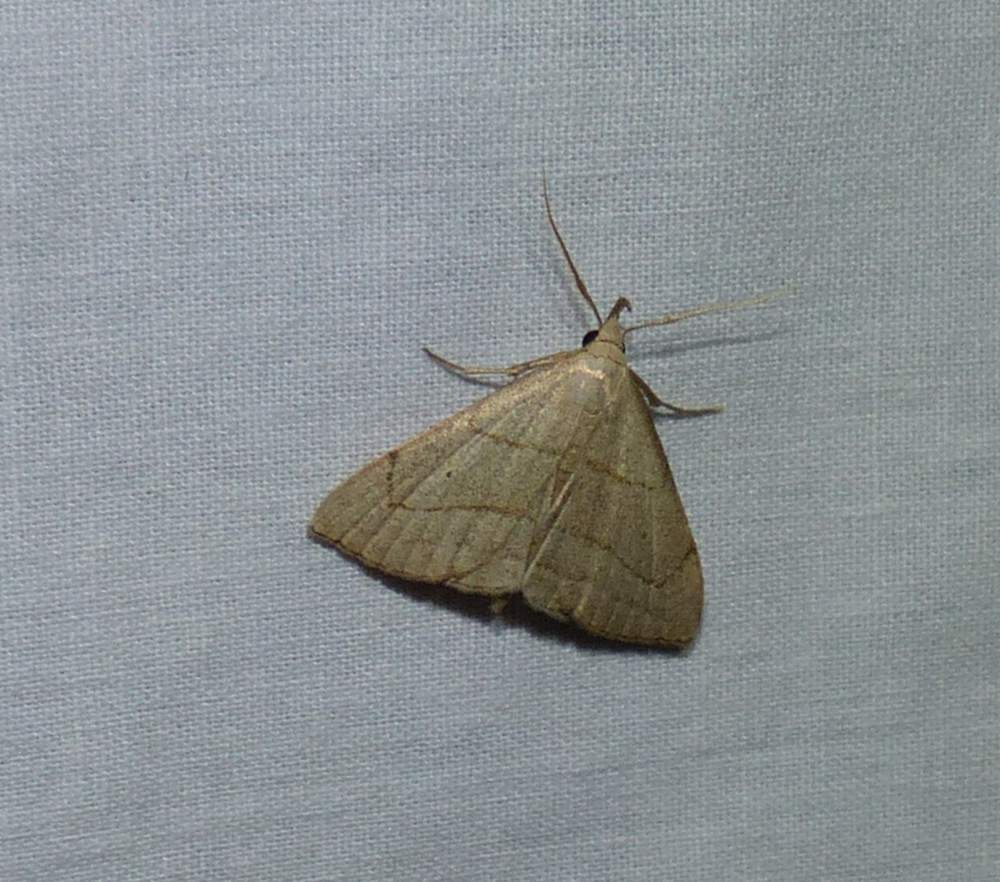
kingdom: Animalia
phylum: Arthropoda
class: Insecta
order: Lepidoptera
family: Erebidae
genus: Macrochilo
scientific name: Macrochilo litophora
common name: Brown-lined owlet
